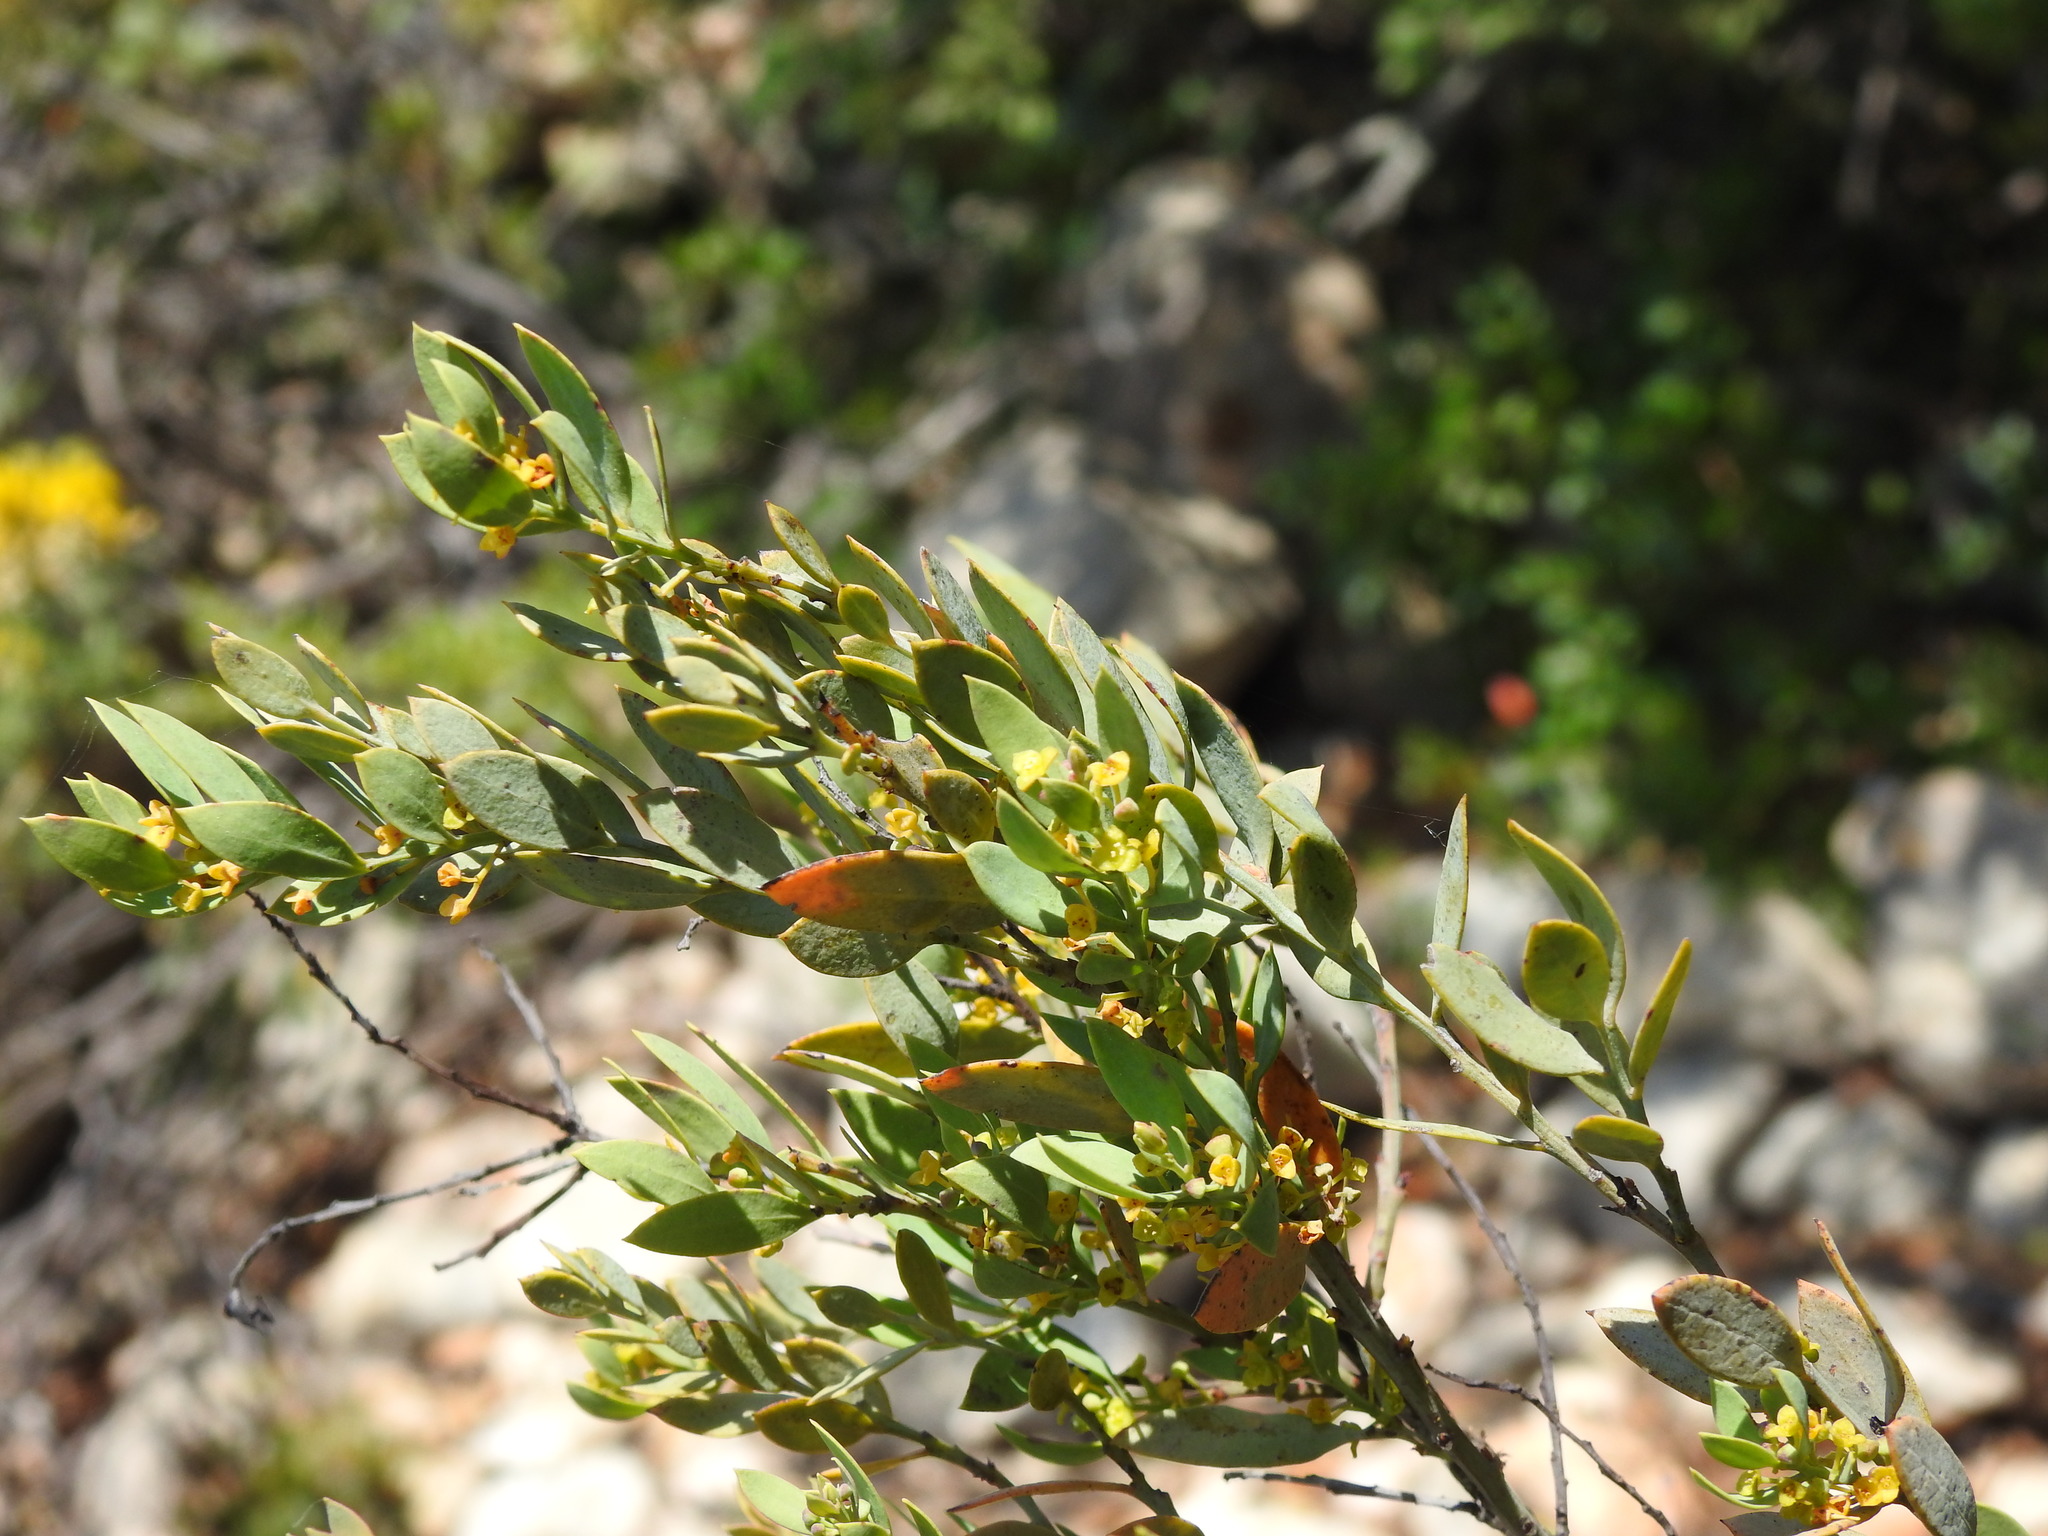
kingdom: Plantae
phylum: Tracheophyta
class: Magnoliopsida
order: Santalales
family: Santalaceae
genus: Osyris
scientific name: Osyris lanceolata
